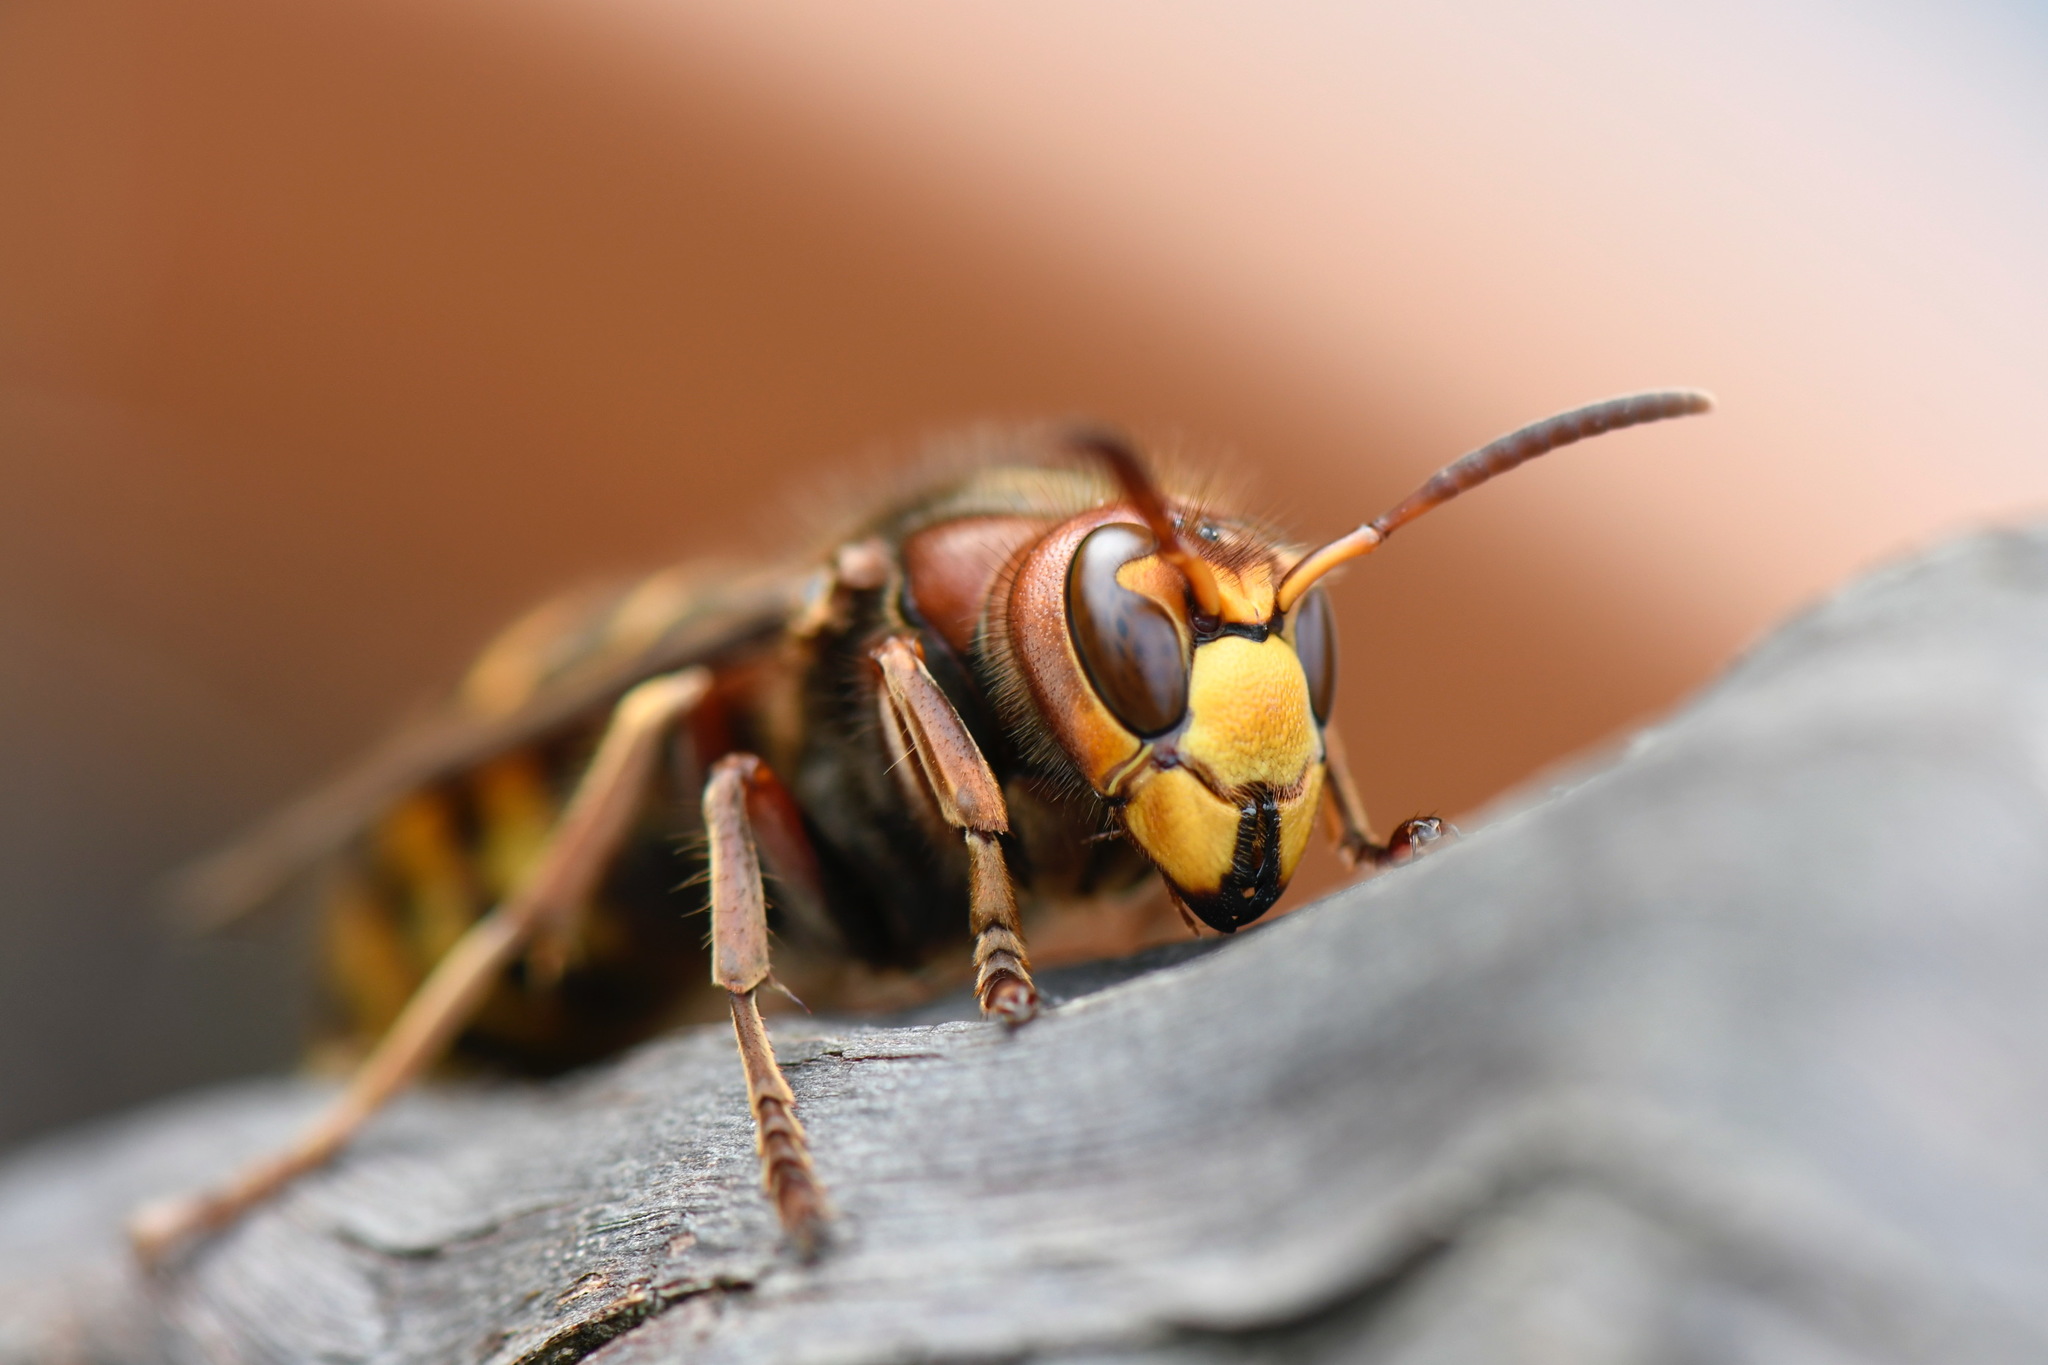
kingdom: Animalia
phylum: Arthropoda
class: Insecta
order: Hymenoptera
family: Vespidae
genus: Vespa
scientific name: Vespa crabro
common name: Hornet
